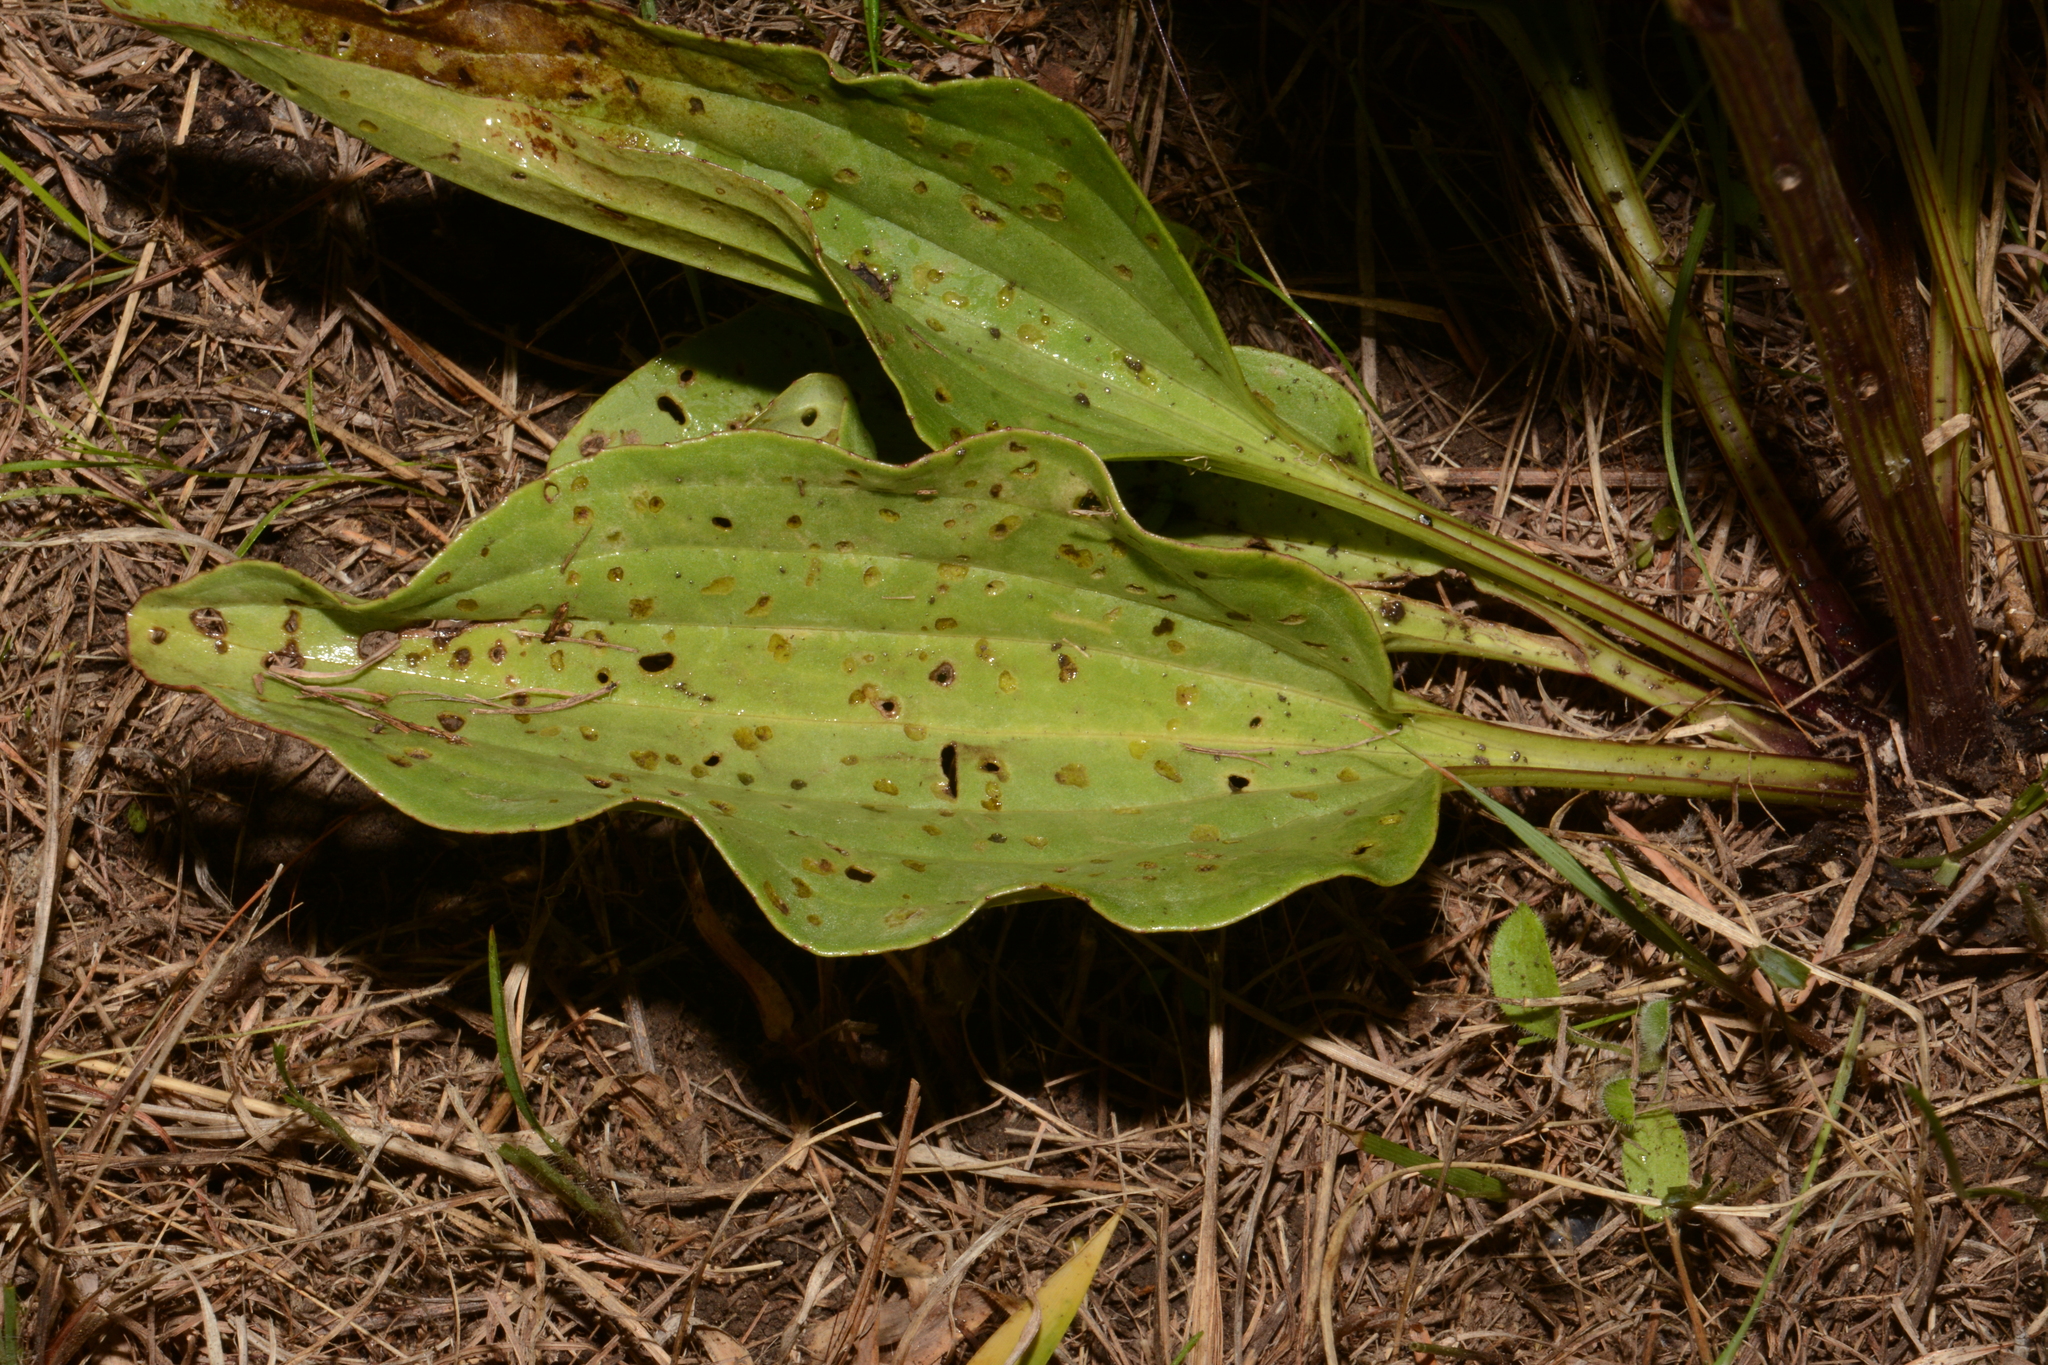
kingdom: Plantae
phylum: Tracheophyta
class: Magnoliopsida
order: Asterales
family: Asteraceae
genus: Arnoglossum
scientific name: Arnoglossum plantagineum
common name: Groove-stemmed indian-plantain
